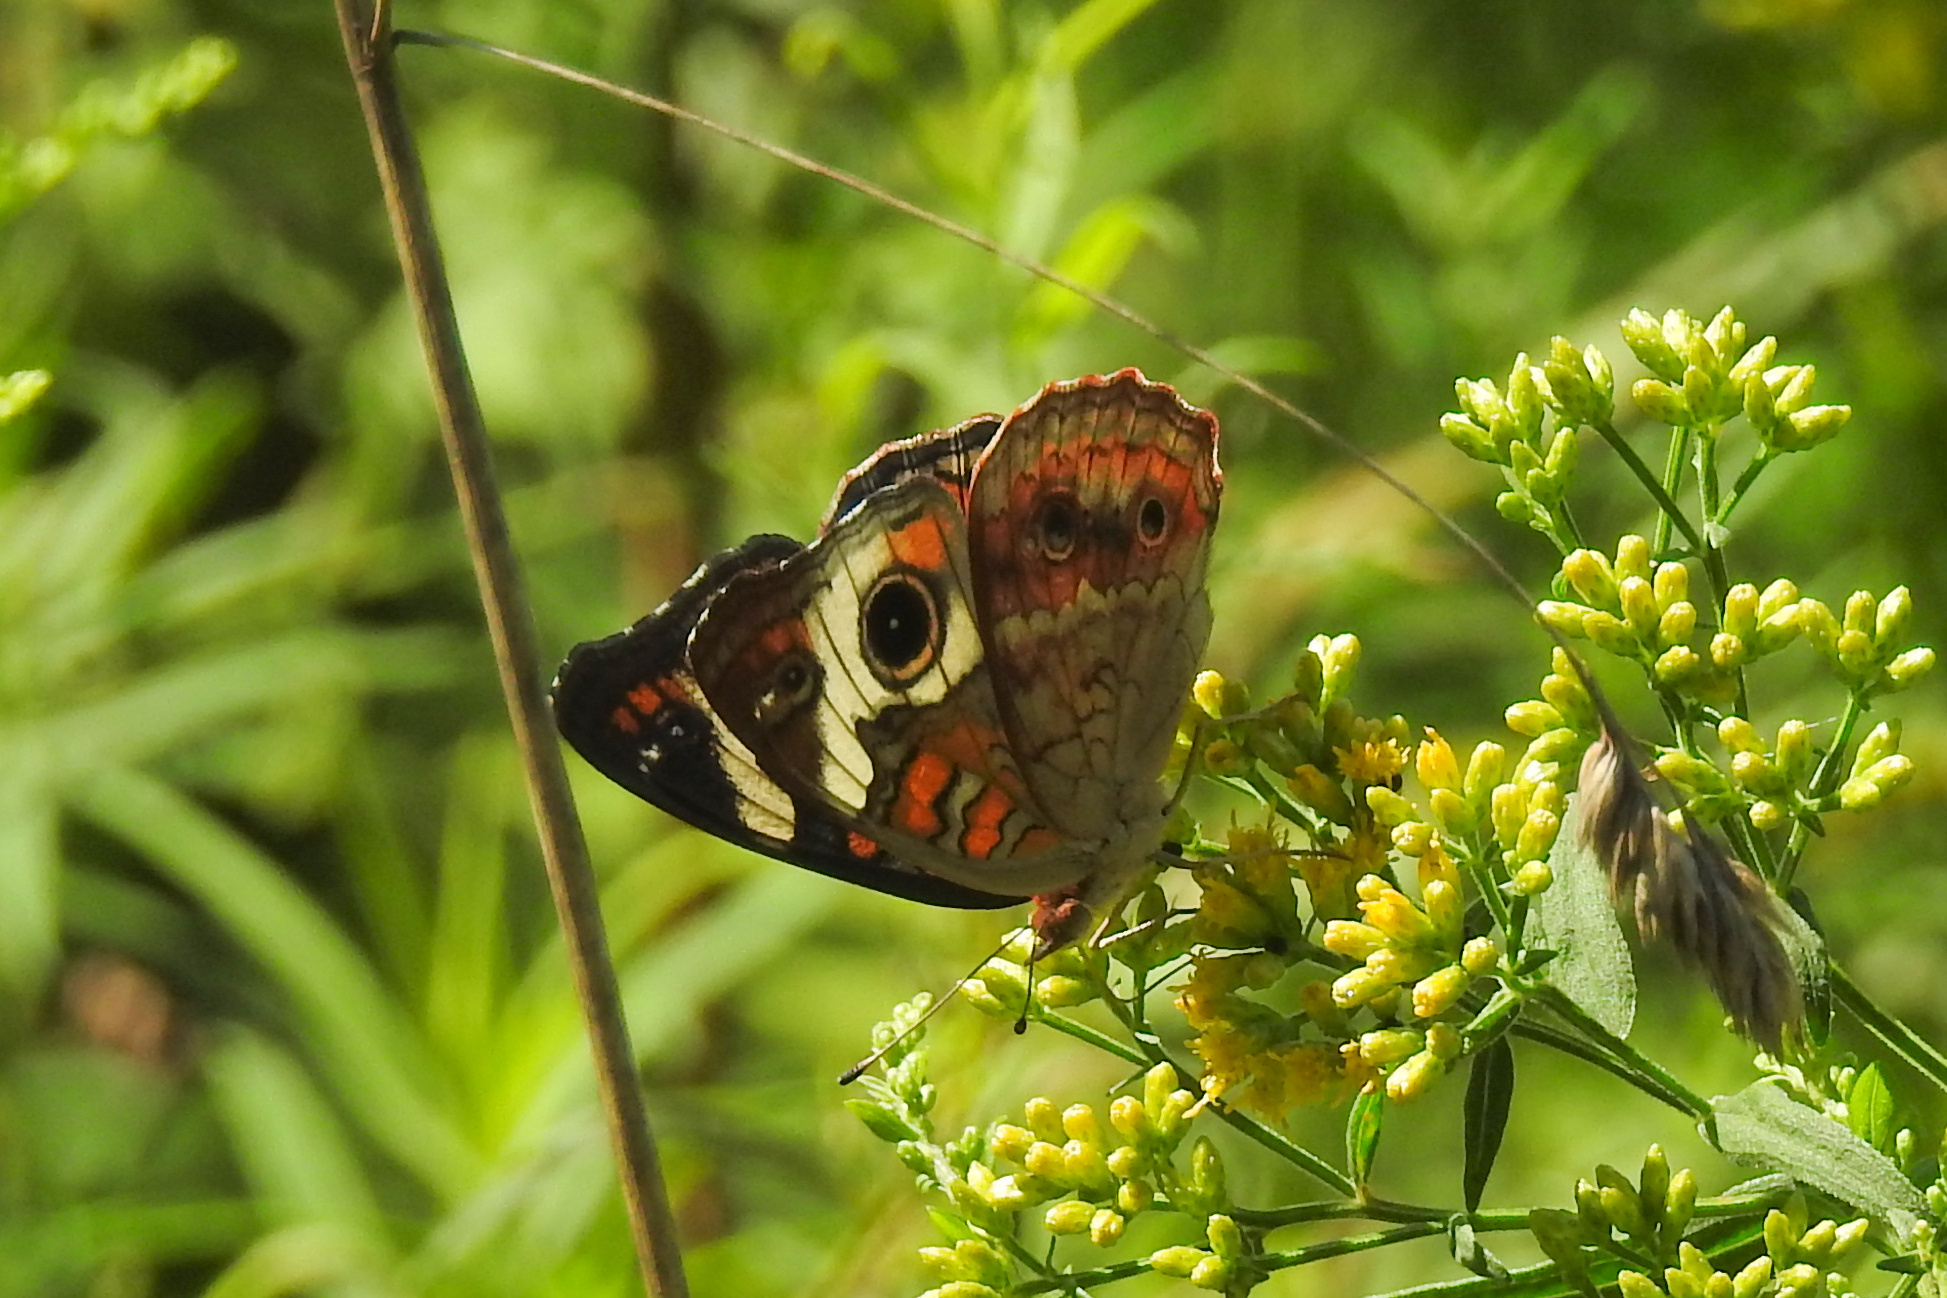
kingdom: Animalia
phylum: Arthropoda
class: Insecta
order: Lepidoptera
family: Nymphalidae
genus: Junonia
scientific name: Junonia coenia
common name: Common buckeye
